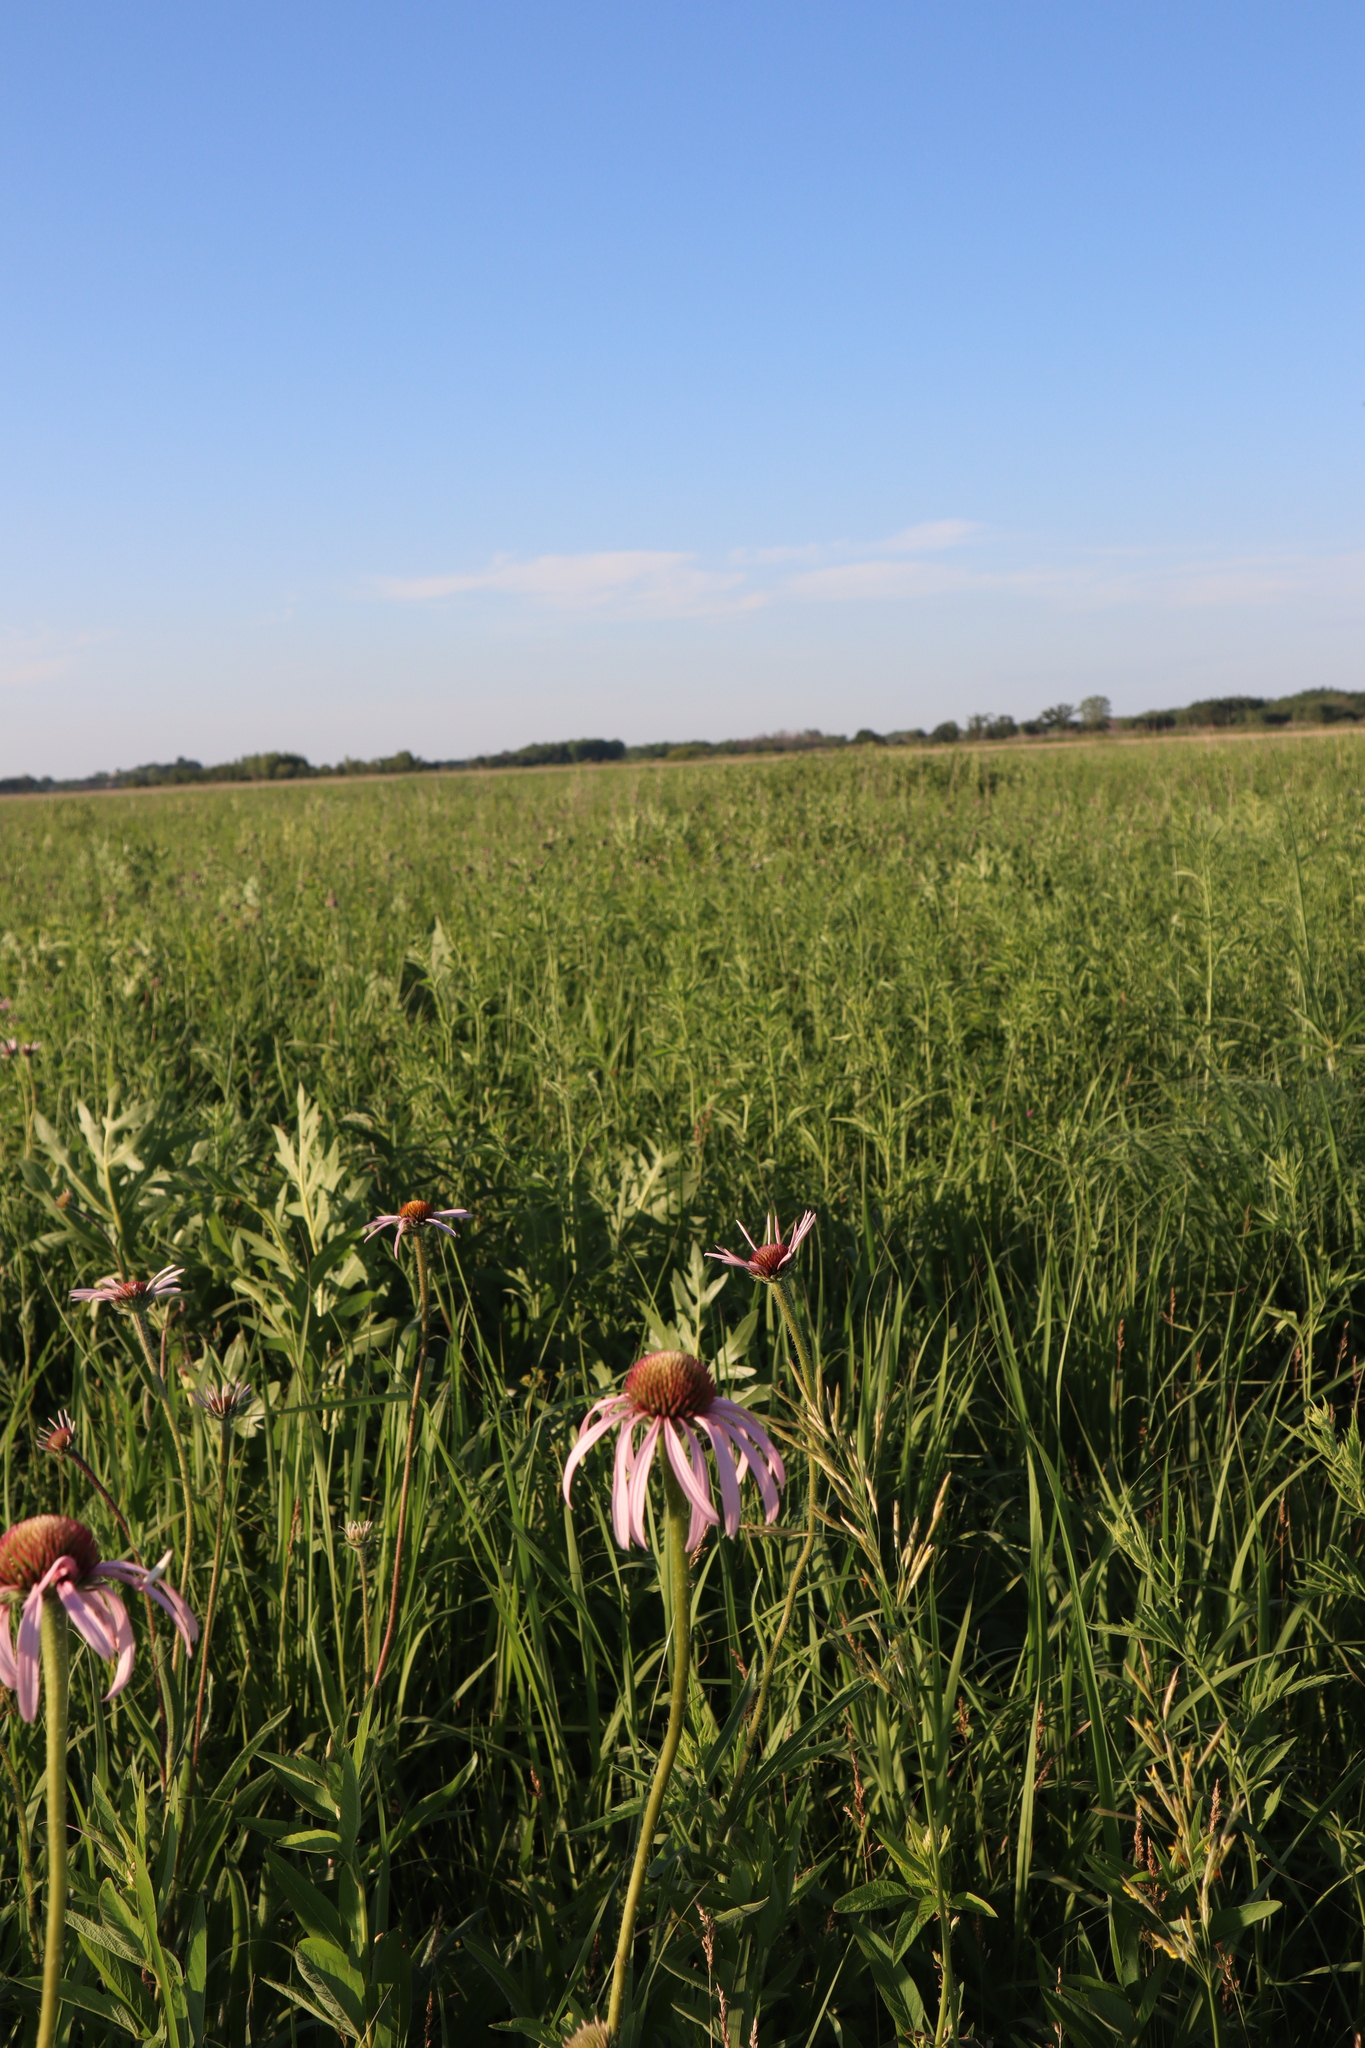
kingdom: Plantae
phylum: Tracheophyta
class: Magnoliopsida
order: Asterales
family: Asteraceae
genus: Echinacea
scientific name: Echinacea pallida
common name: Pale echinacea
